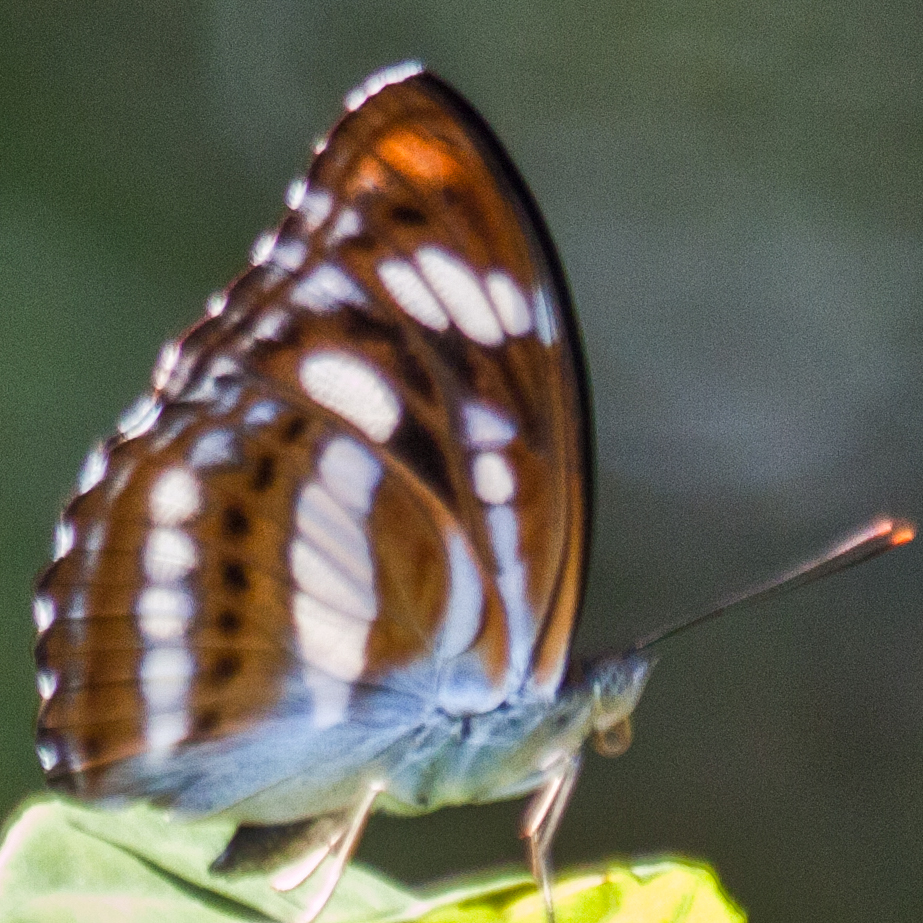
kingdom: Animalia
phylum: Arthropoda
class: Insecta
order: Lepidoptera
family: Nymphalidae
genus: Parathyma
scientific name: Parathyma nefte
